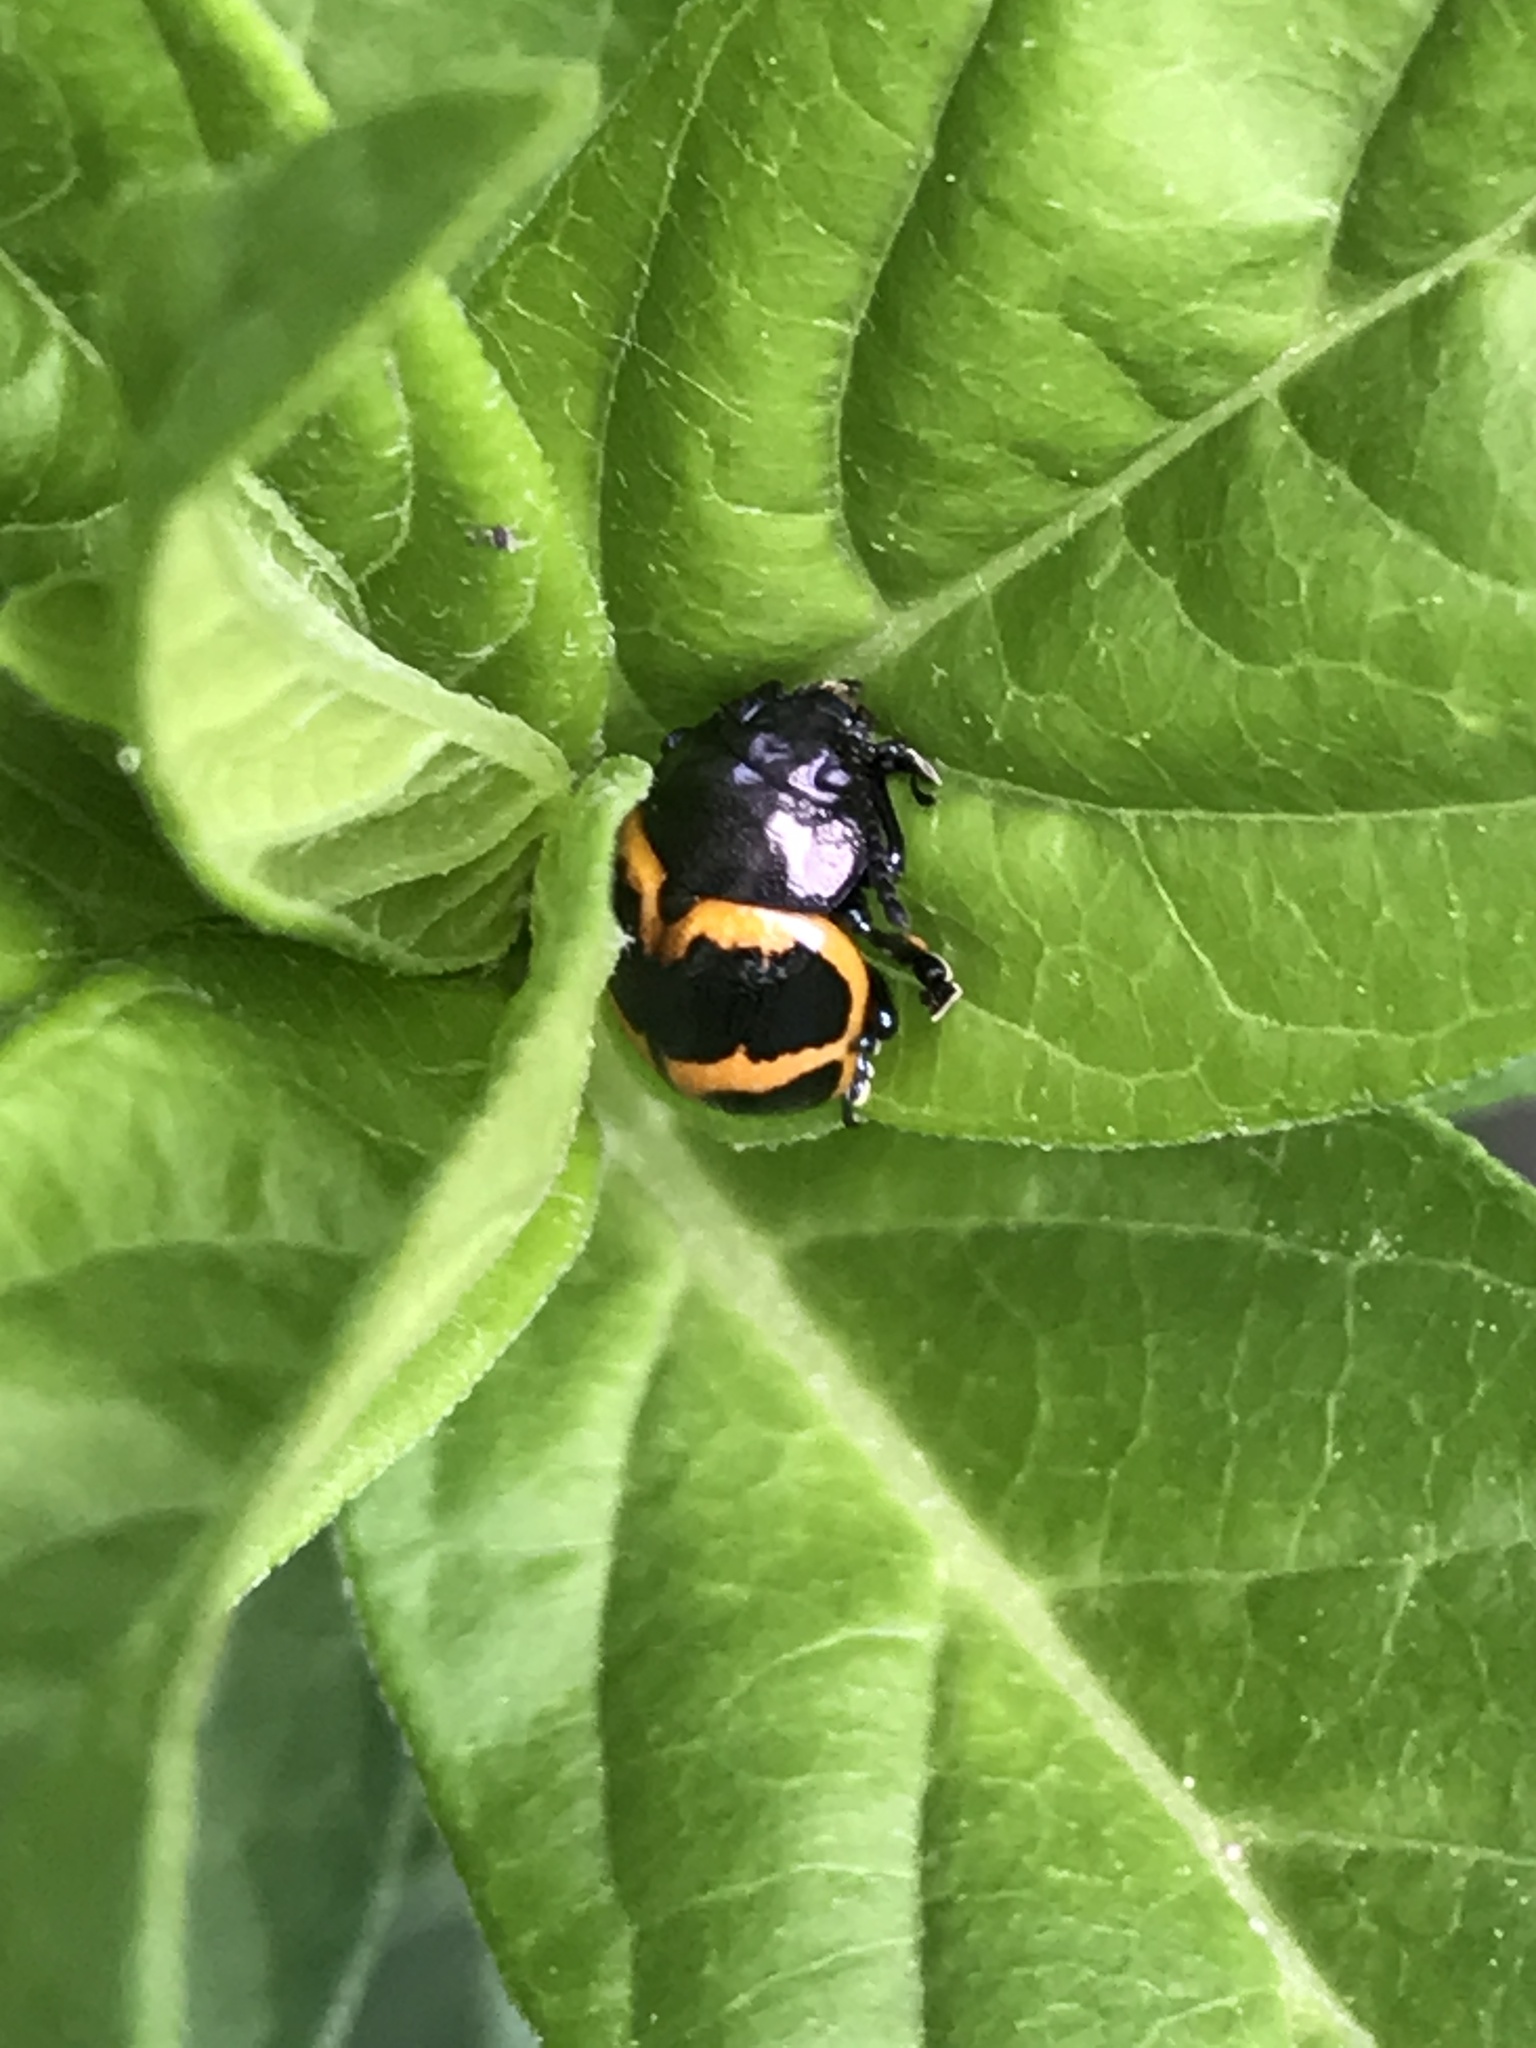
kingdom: Animalia
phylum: Arthropoda
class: Insecta
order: Coleoptera
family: Chrysomelidae
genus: Labidomera
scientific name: Labidomera clivicollis
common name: Swamp milkweed leaf beetle
